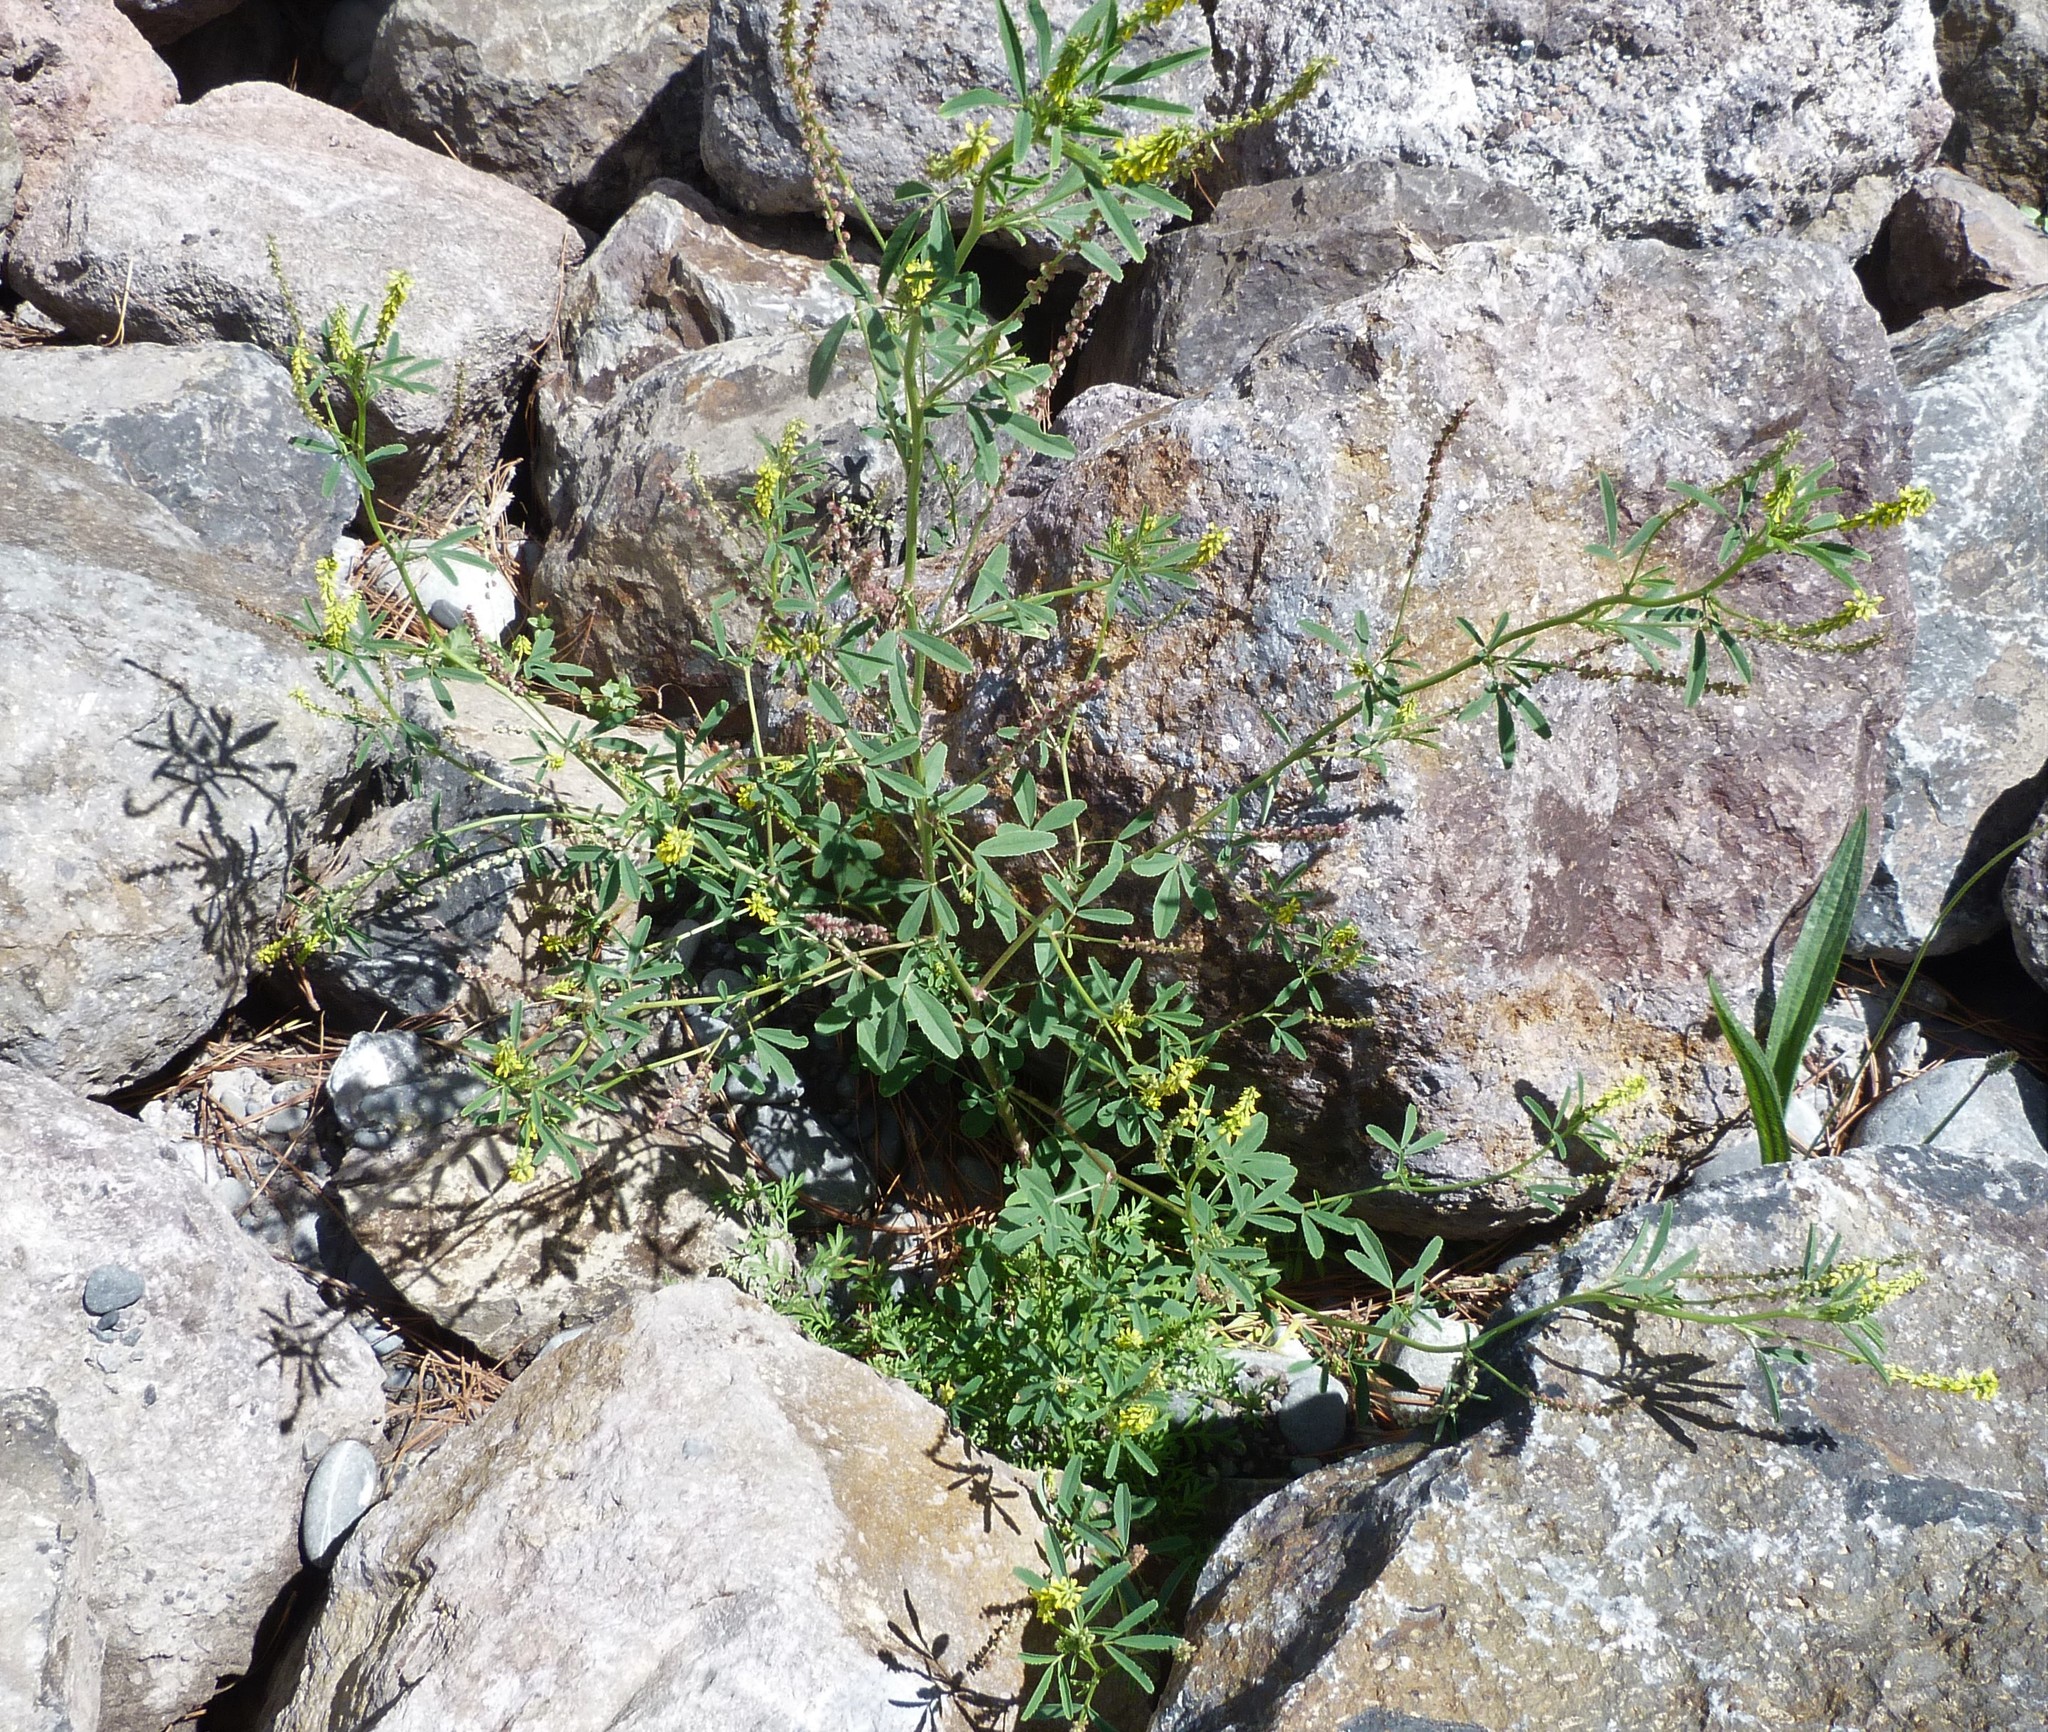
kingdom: Plantae
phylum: Tracheophyta
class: Magnoliopsida
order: Fabales
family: Fabaceae
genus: Melilotus
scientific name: Melilotus indicus
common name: Small melilot
